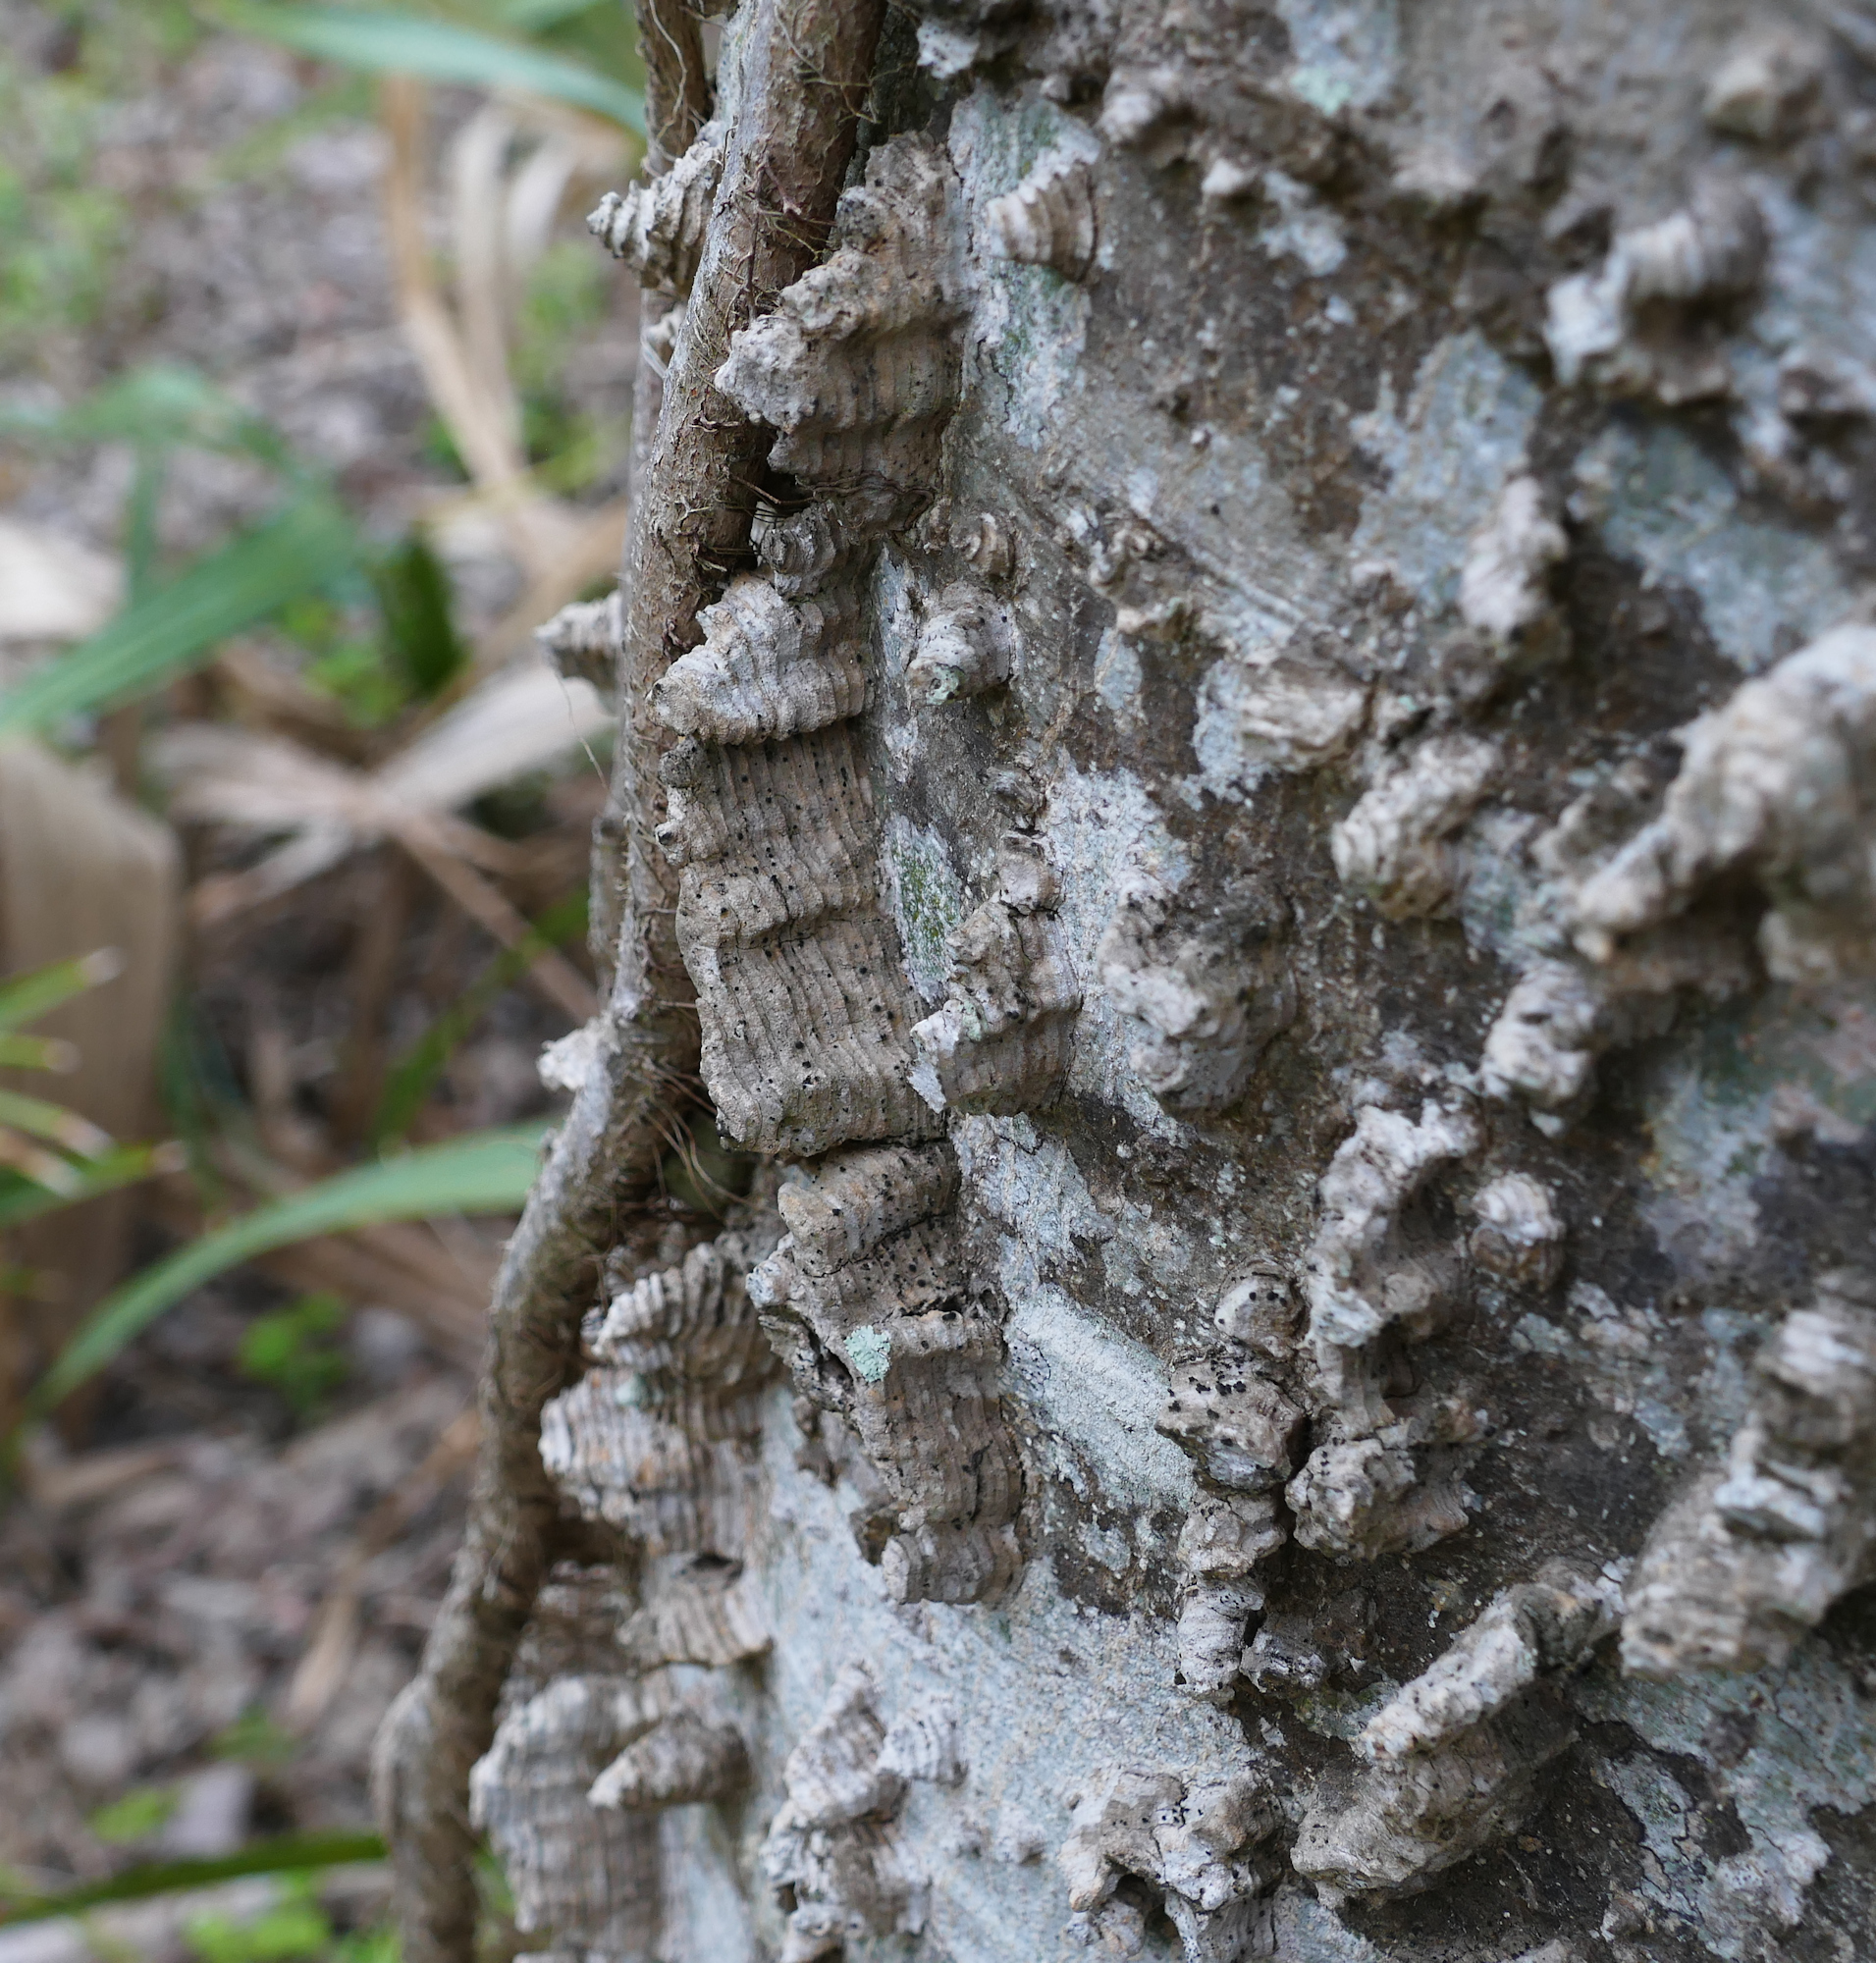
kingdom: Plantae
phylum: Tracheophyta
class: Magnoliopsida
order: Rosales
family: Cannabaceae
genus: Celtis
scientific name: Celtis laevigata
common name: Sugarberry
